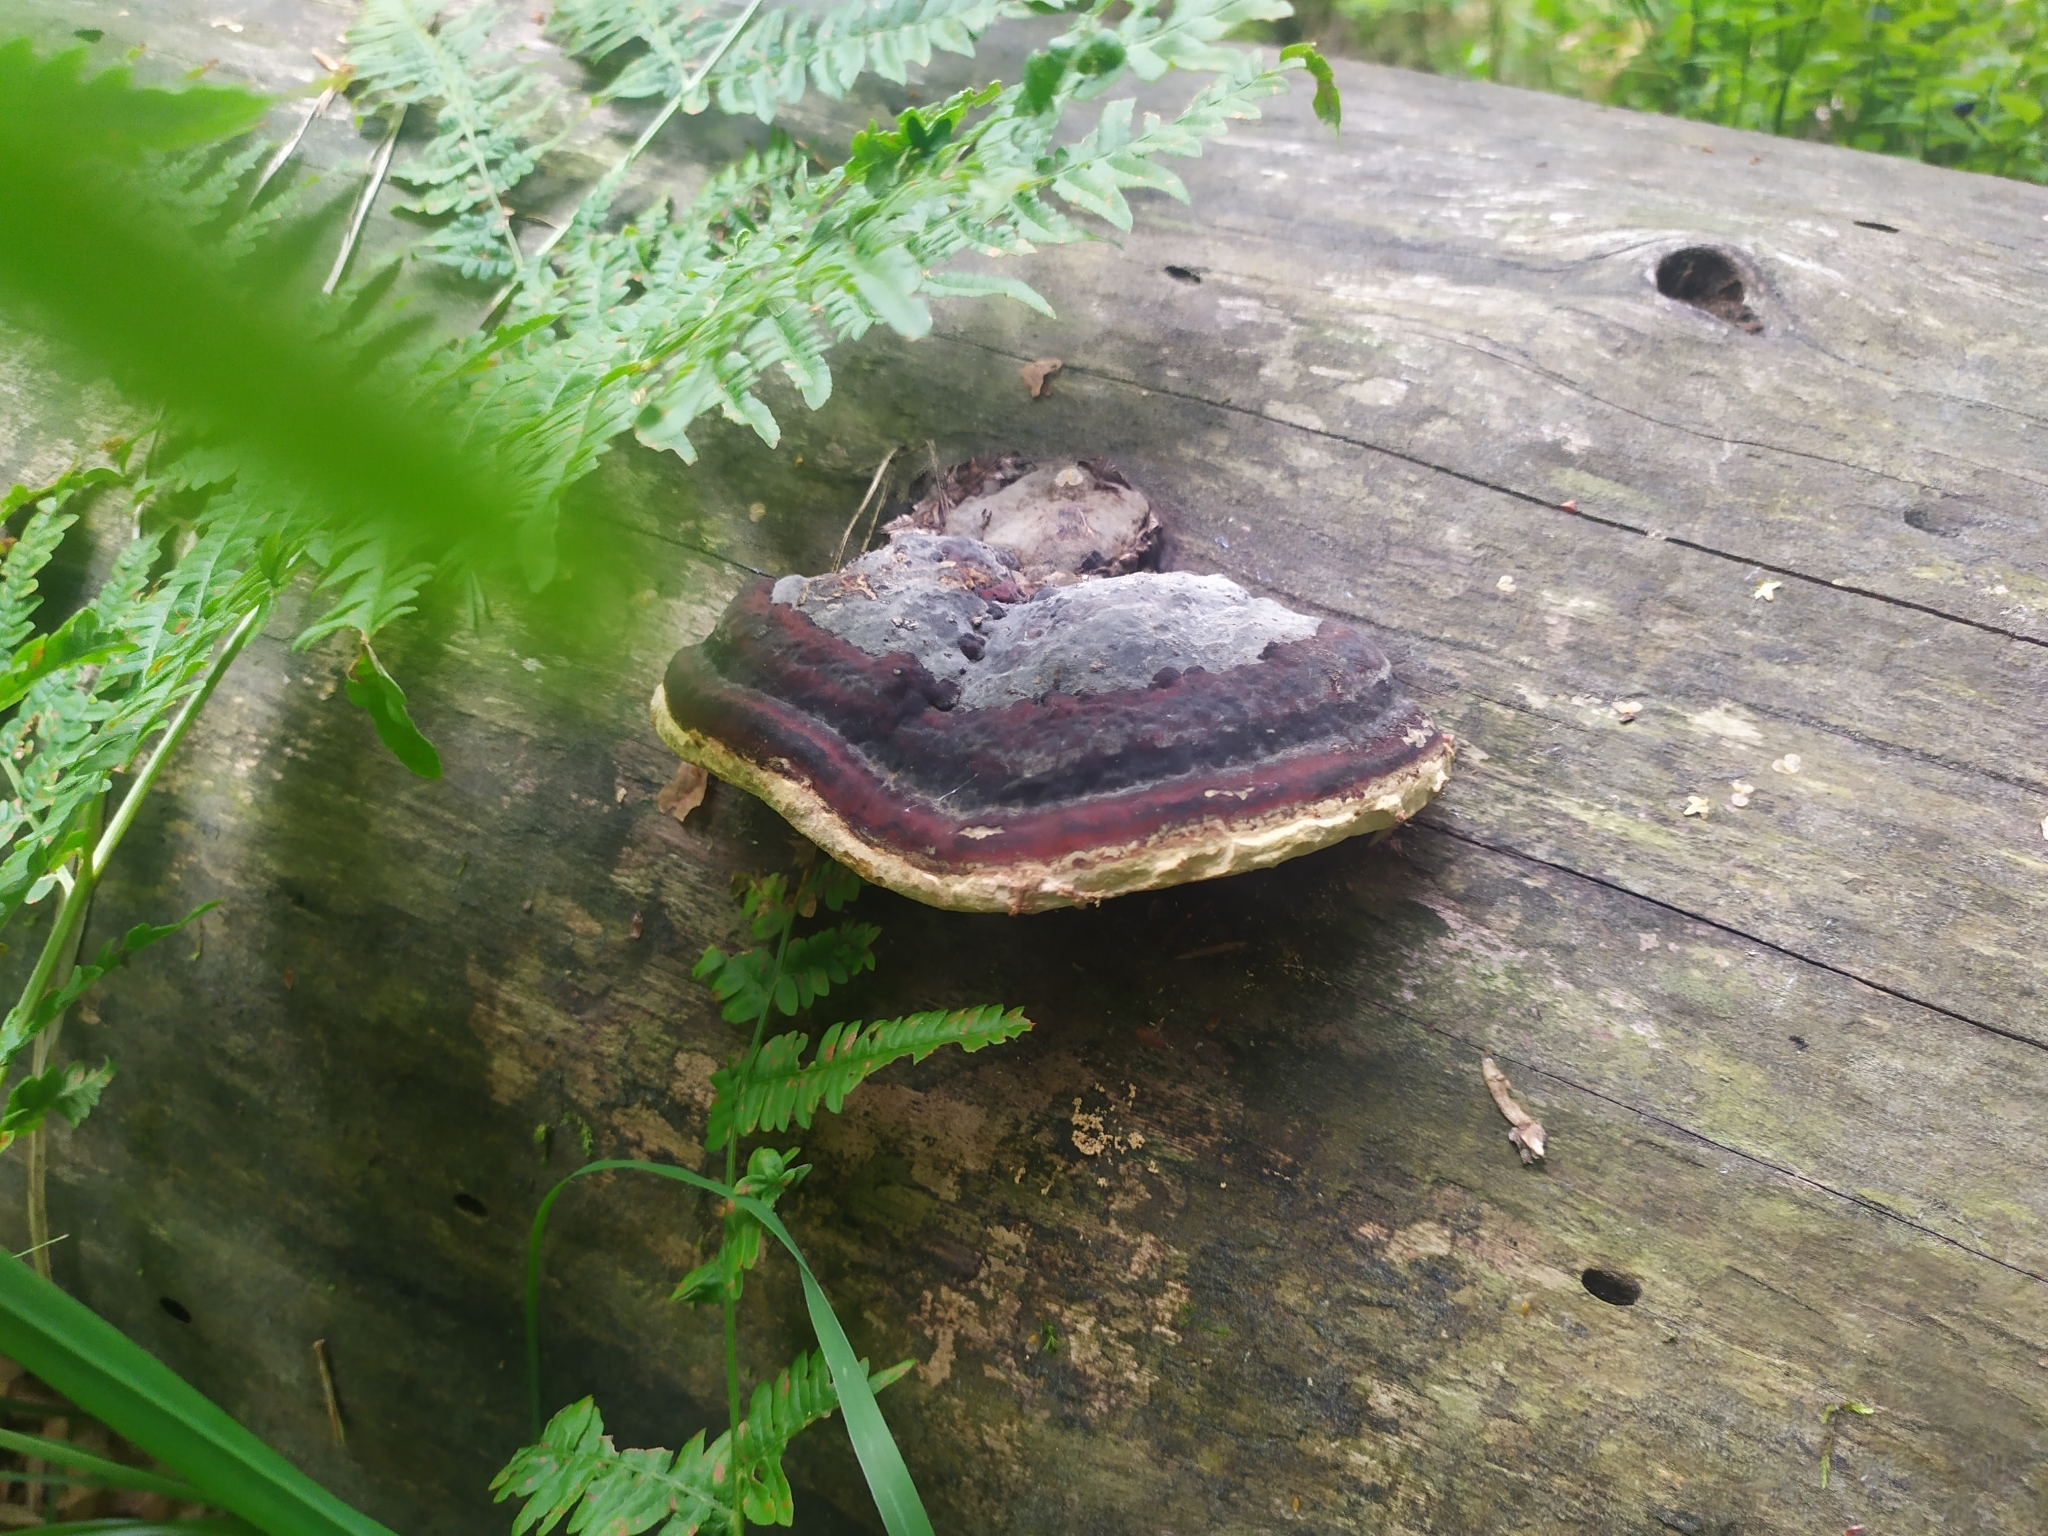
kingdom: Fungi
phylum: Basidiomycota
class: Agaricomycetes
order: Polyporales
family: Fomitopsidaceae
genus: Fomitopsis
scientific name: Fomitopsis pinicola
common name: Red-belted bracket
